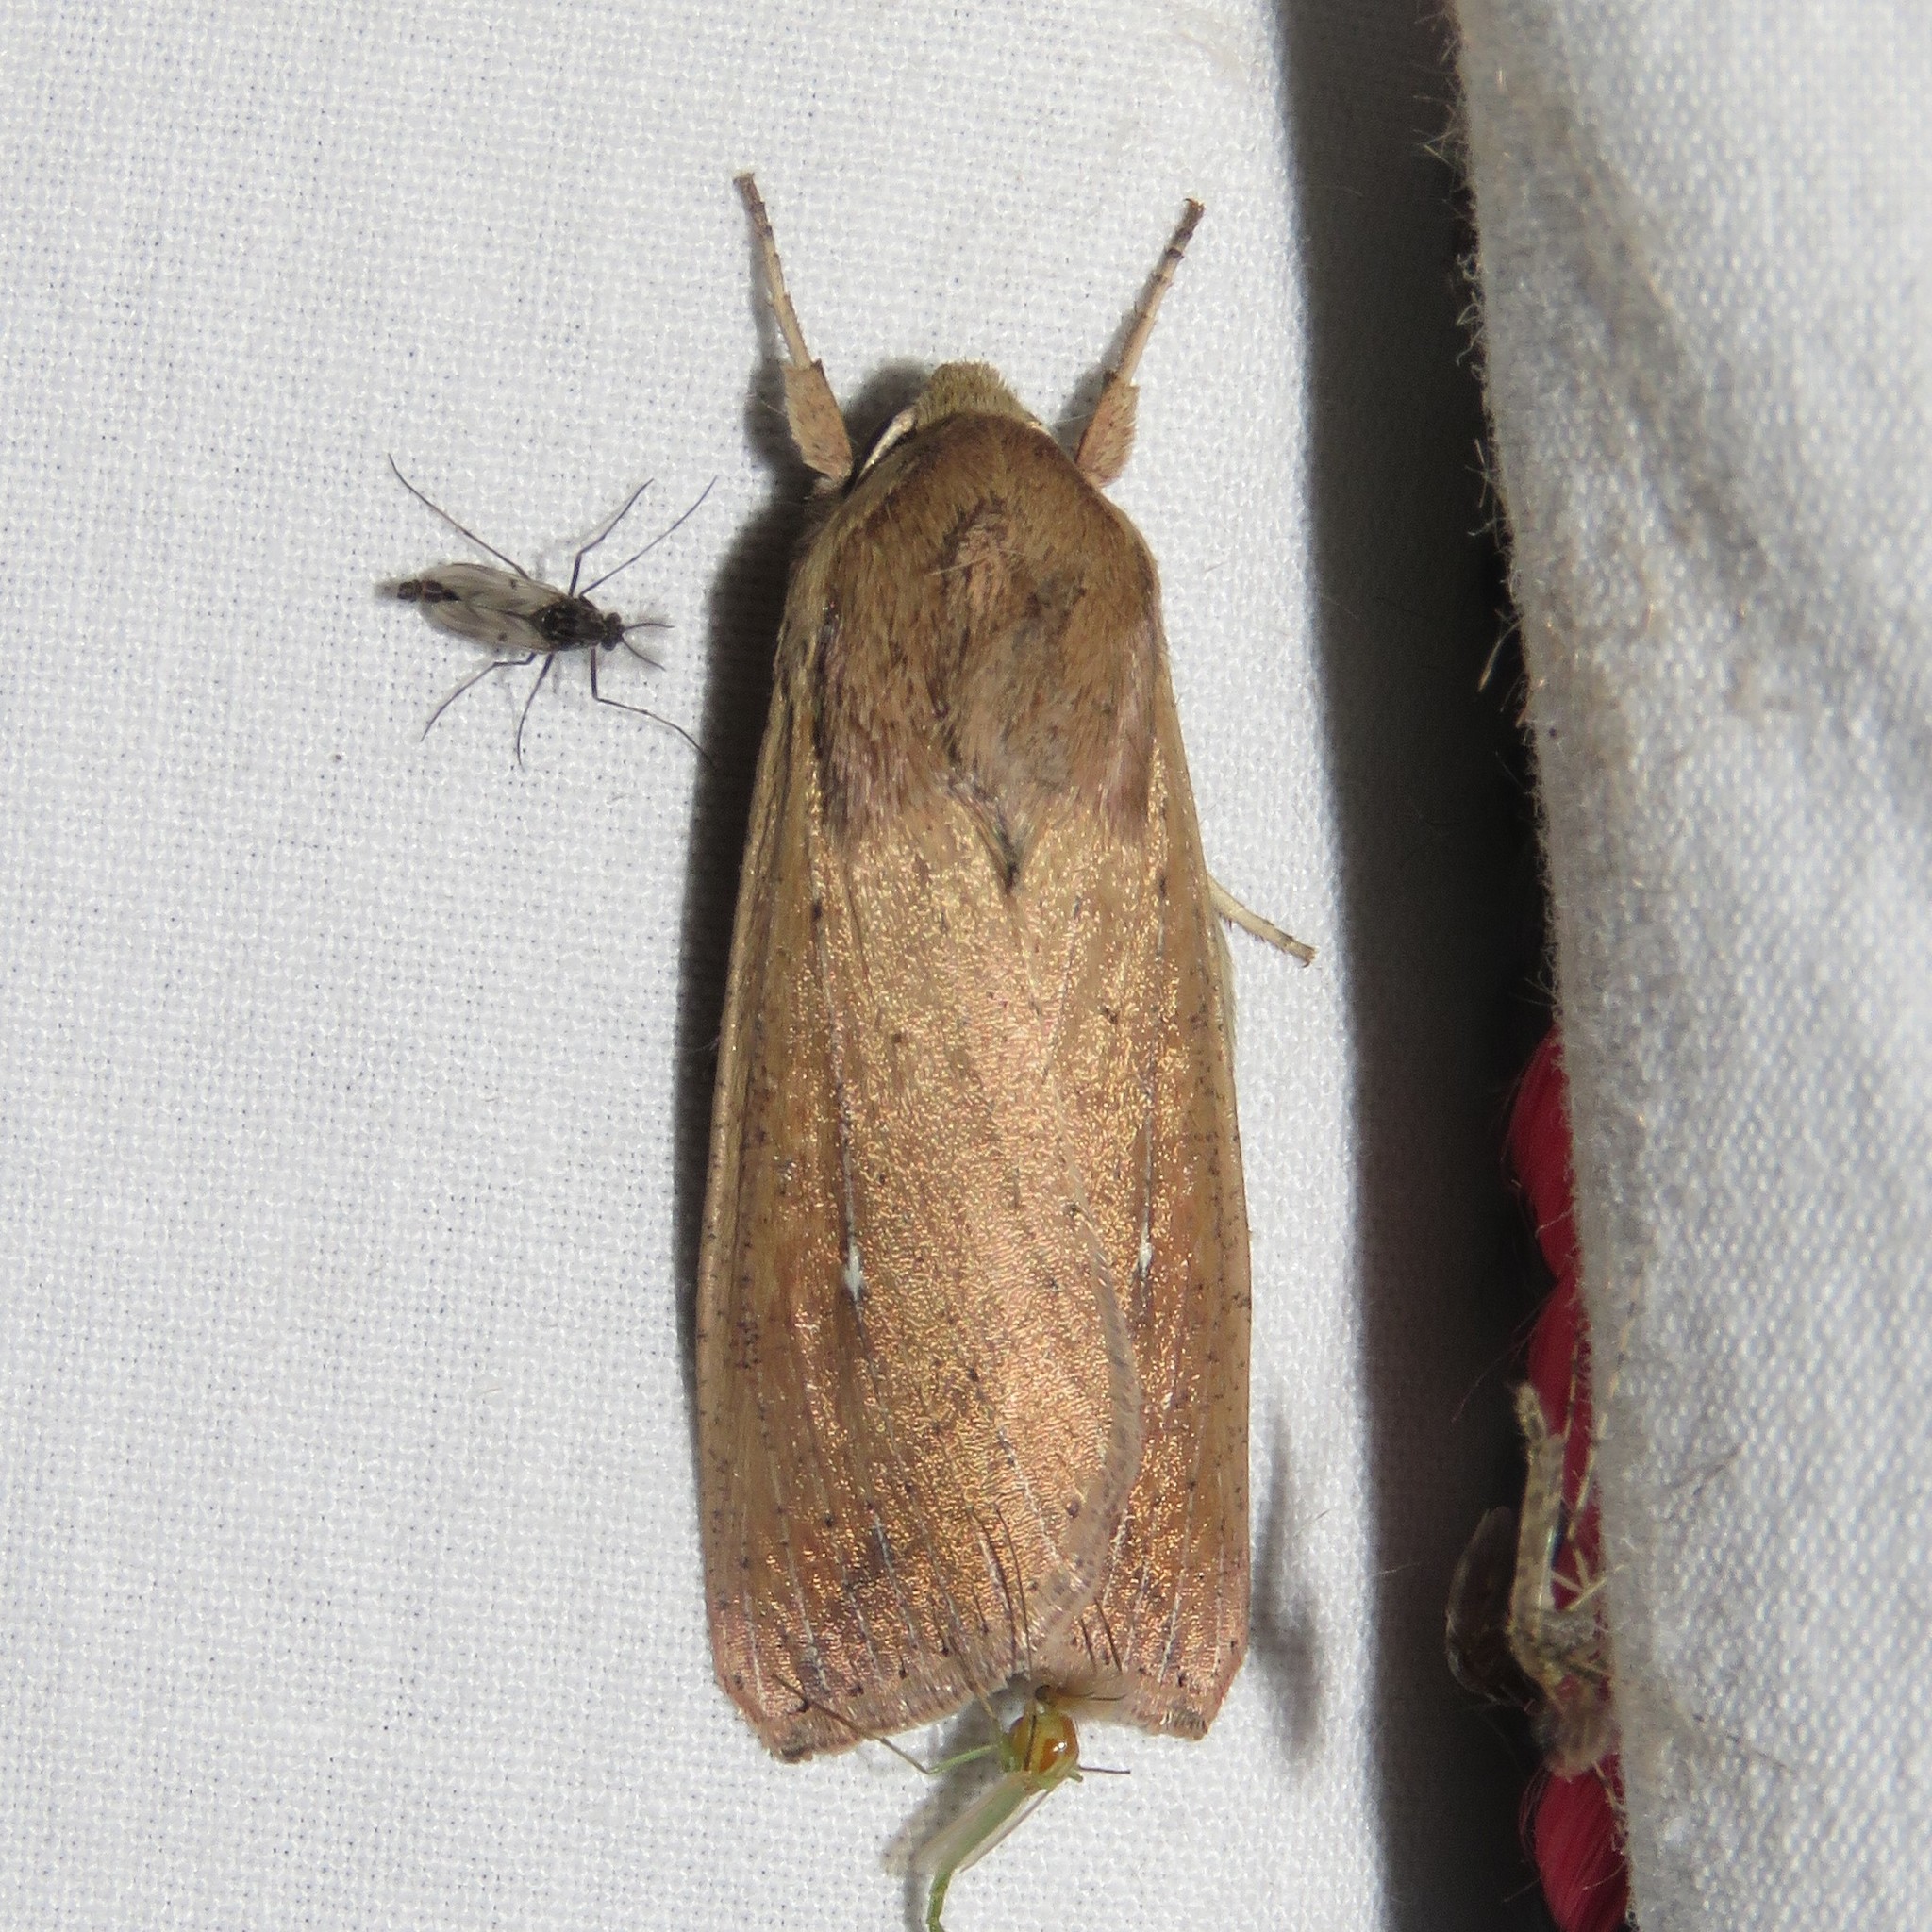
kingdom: Animalia
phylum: Arthropoda
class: Insecta
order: Lepidoptera
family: Noctuidae
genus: Mythimna
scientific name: Mythimna unipuncta
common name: White-speck
